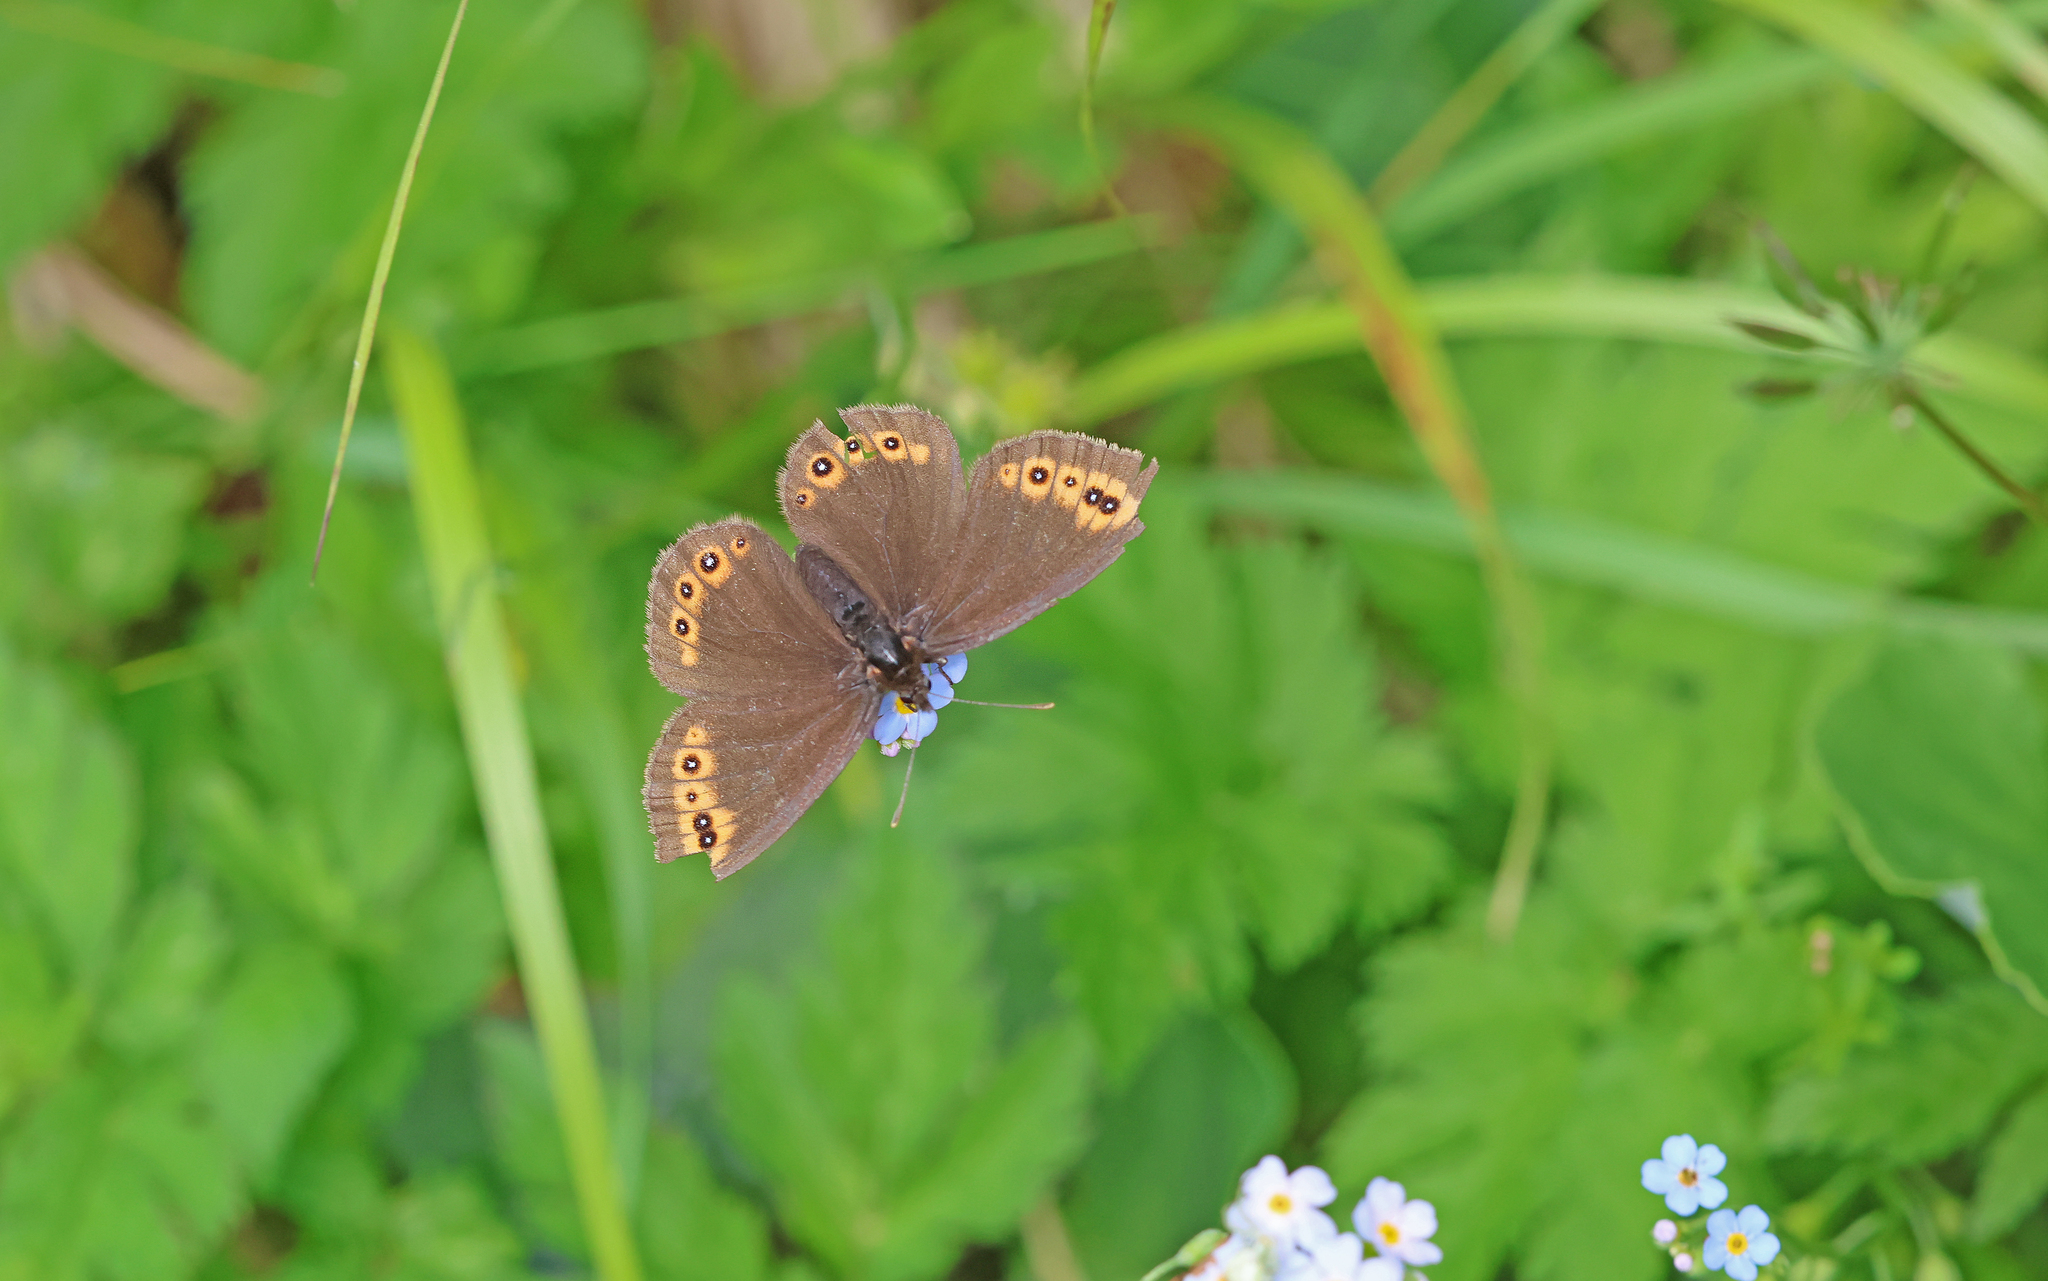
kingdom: Animalia
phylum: Arthropoda
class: Insecta
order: Lepidoptera
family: Nymphalidae
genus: Erebia
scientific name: Erebia medusa
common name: Woodland ringlet
